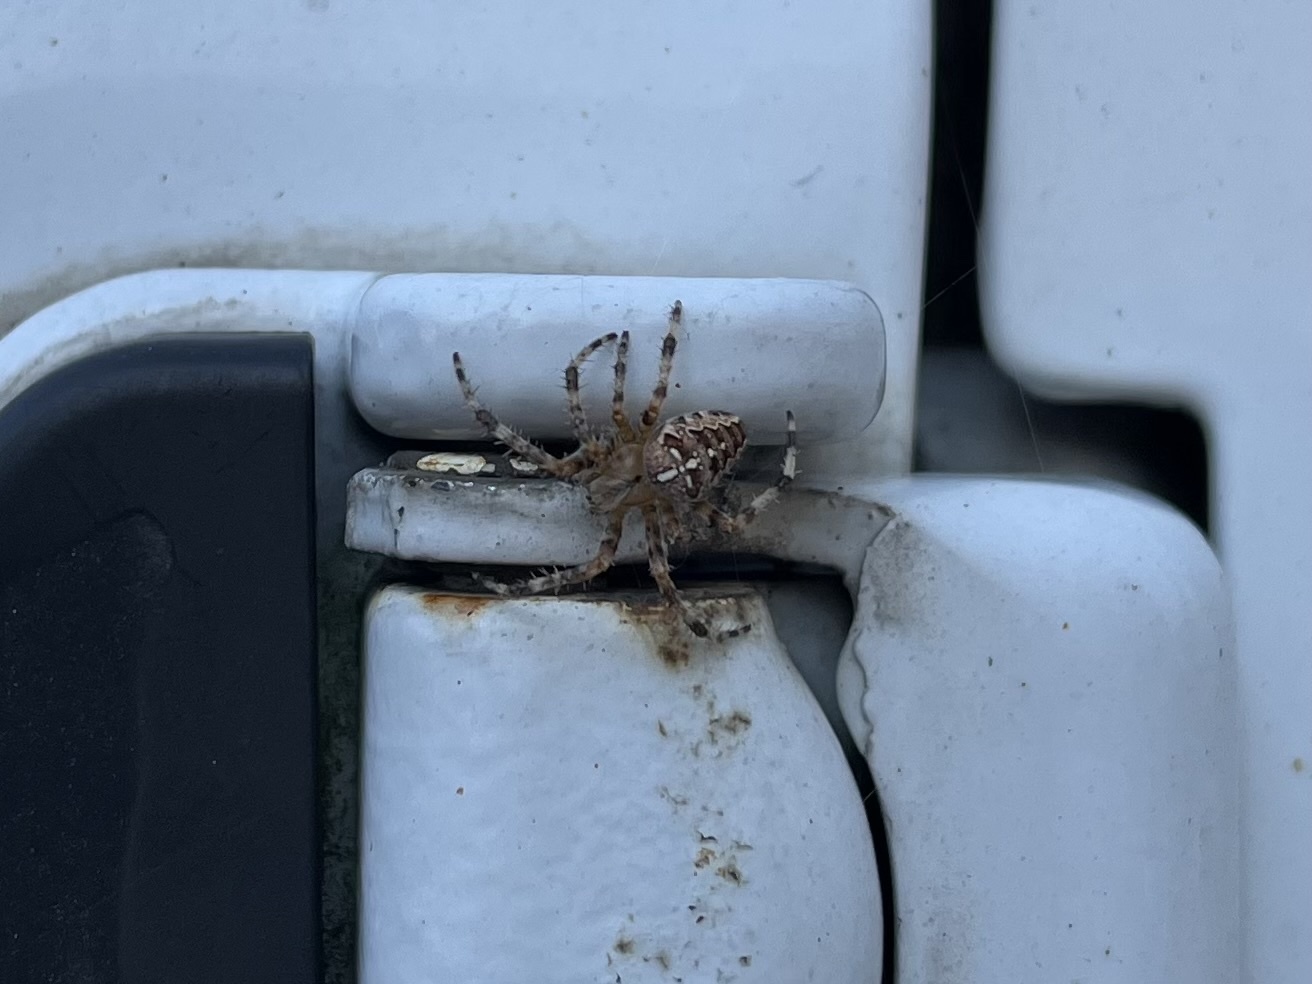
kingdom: Animalia
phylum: Arthropoda
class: Arachnida
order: Araneae
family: Araneidae
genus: Araneus
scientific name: Araneus diadematus
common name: Cross orbweaver
